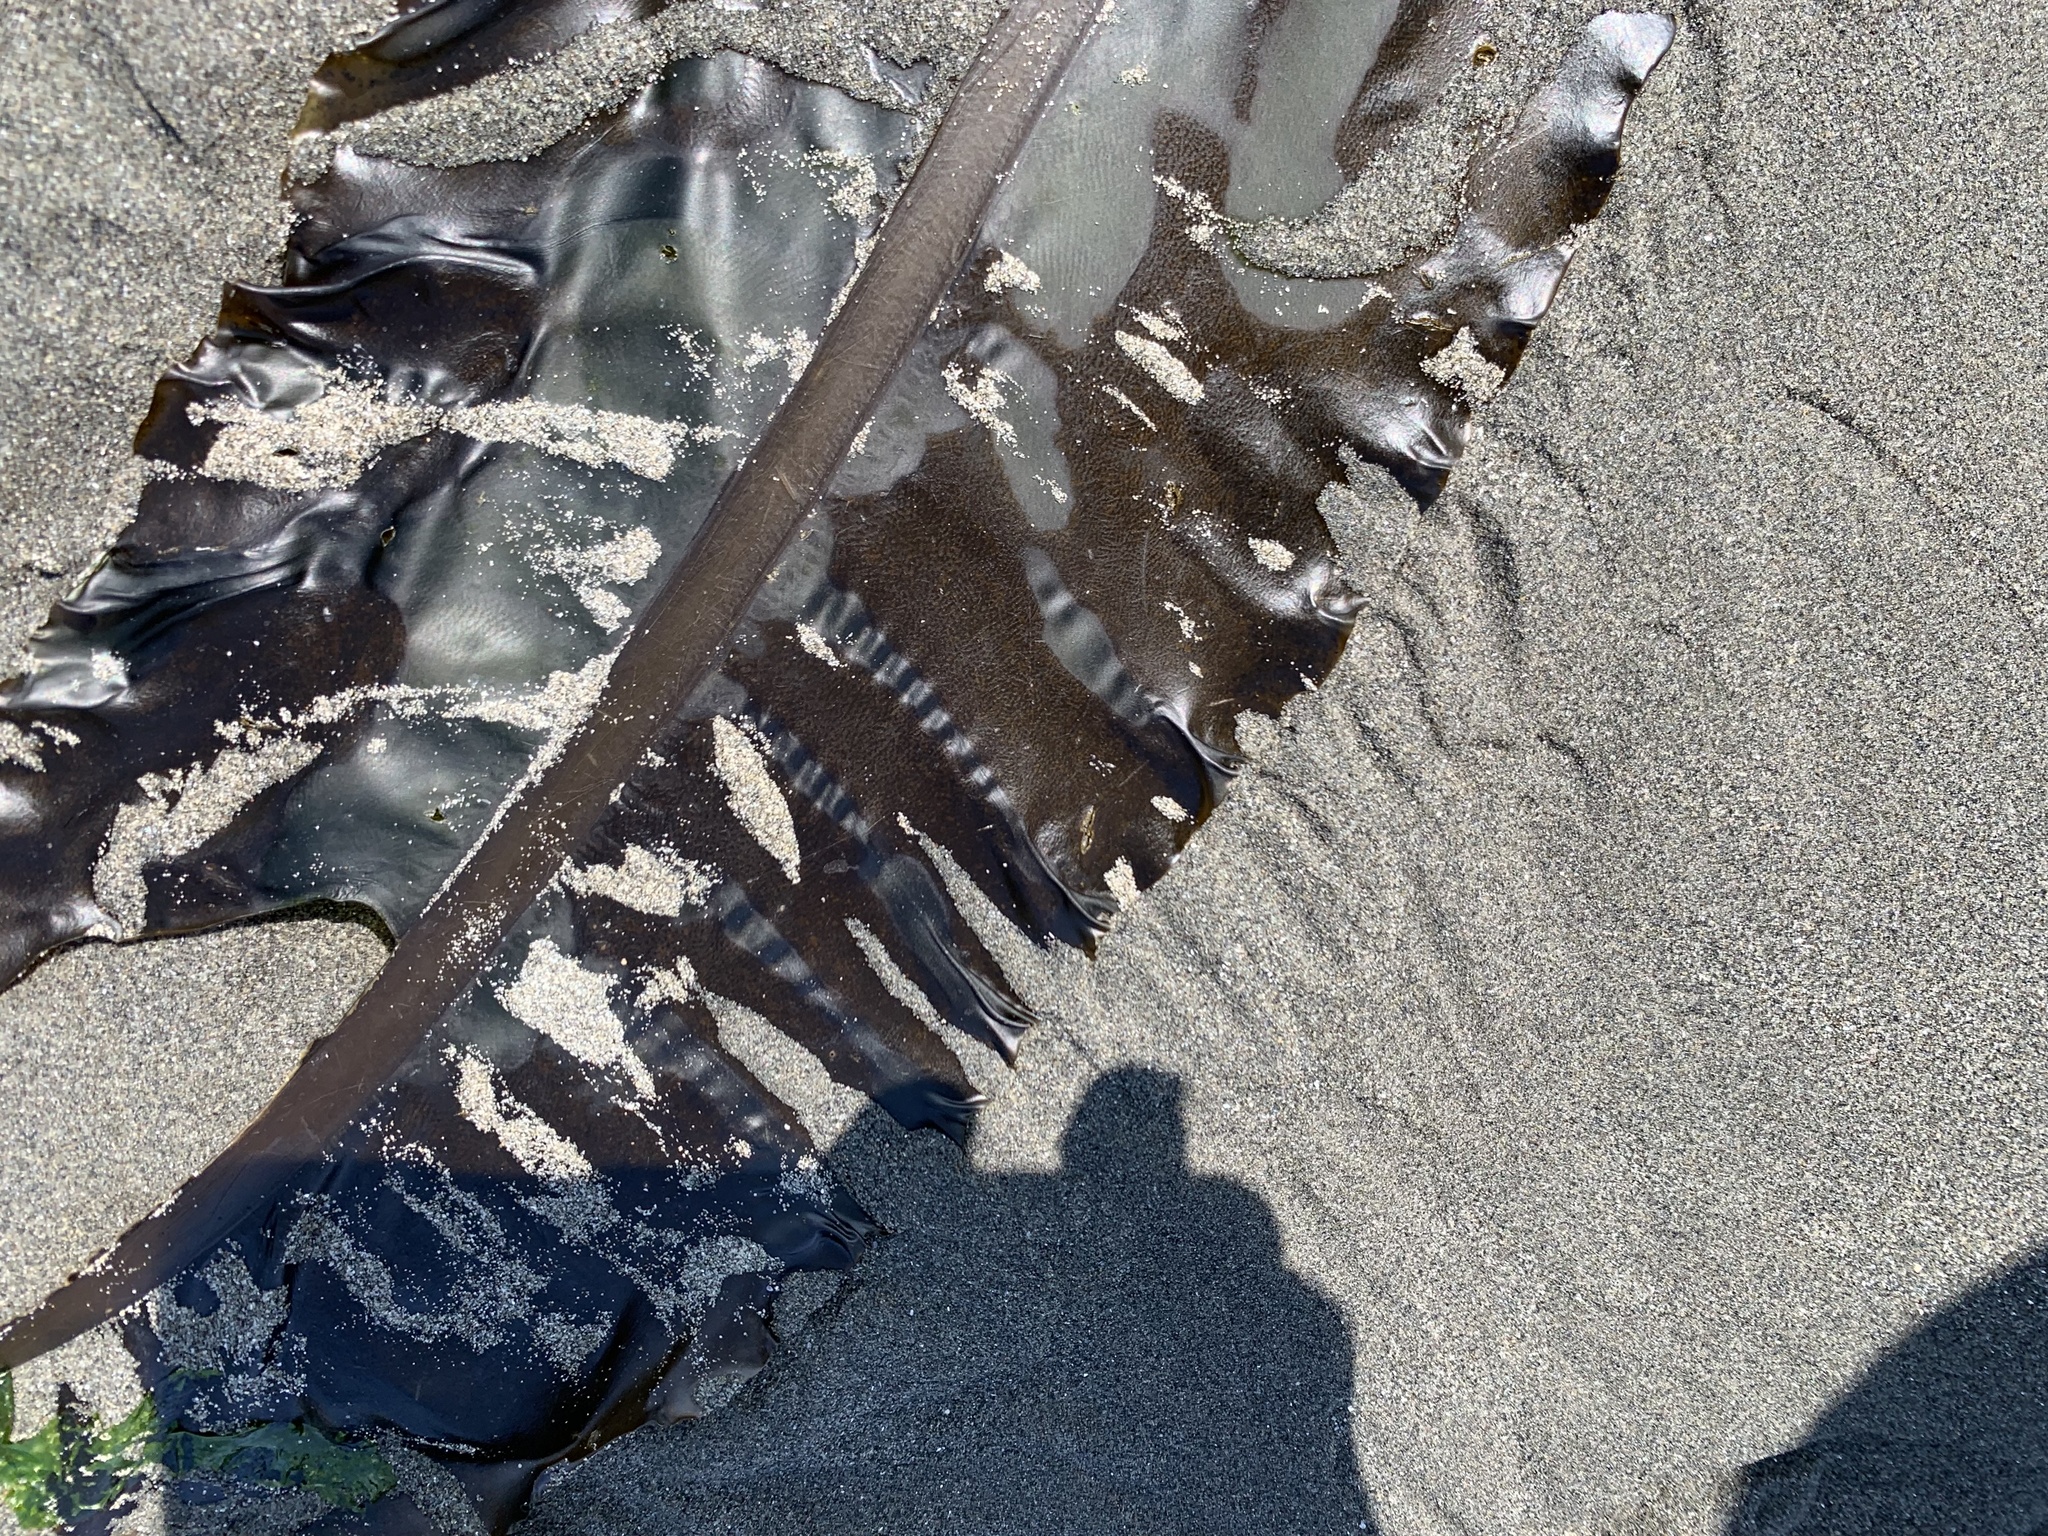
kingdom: Chromista
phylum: Ochrophyta
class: Phaeophyceae
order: Laminariales
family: Alariaceae
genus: Alaria
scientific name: Alaria marginata
